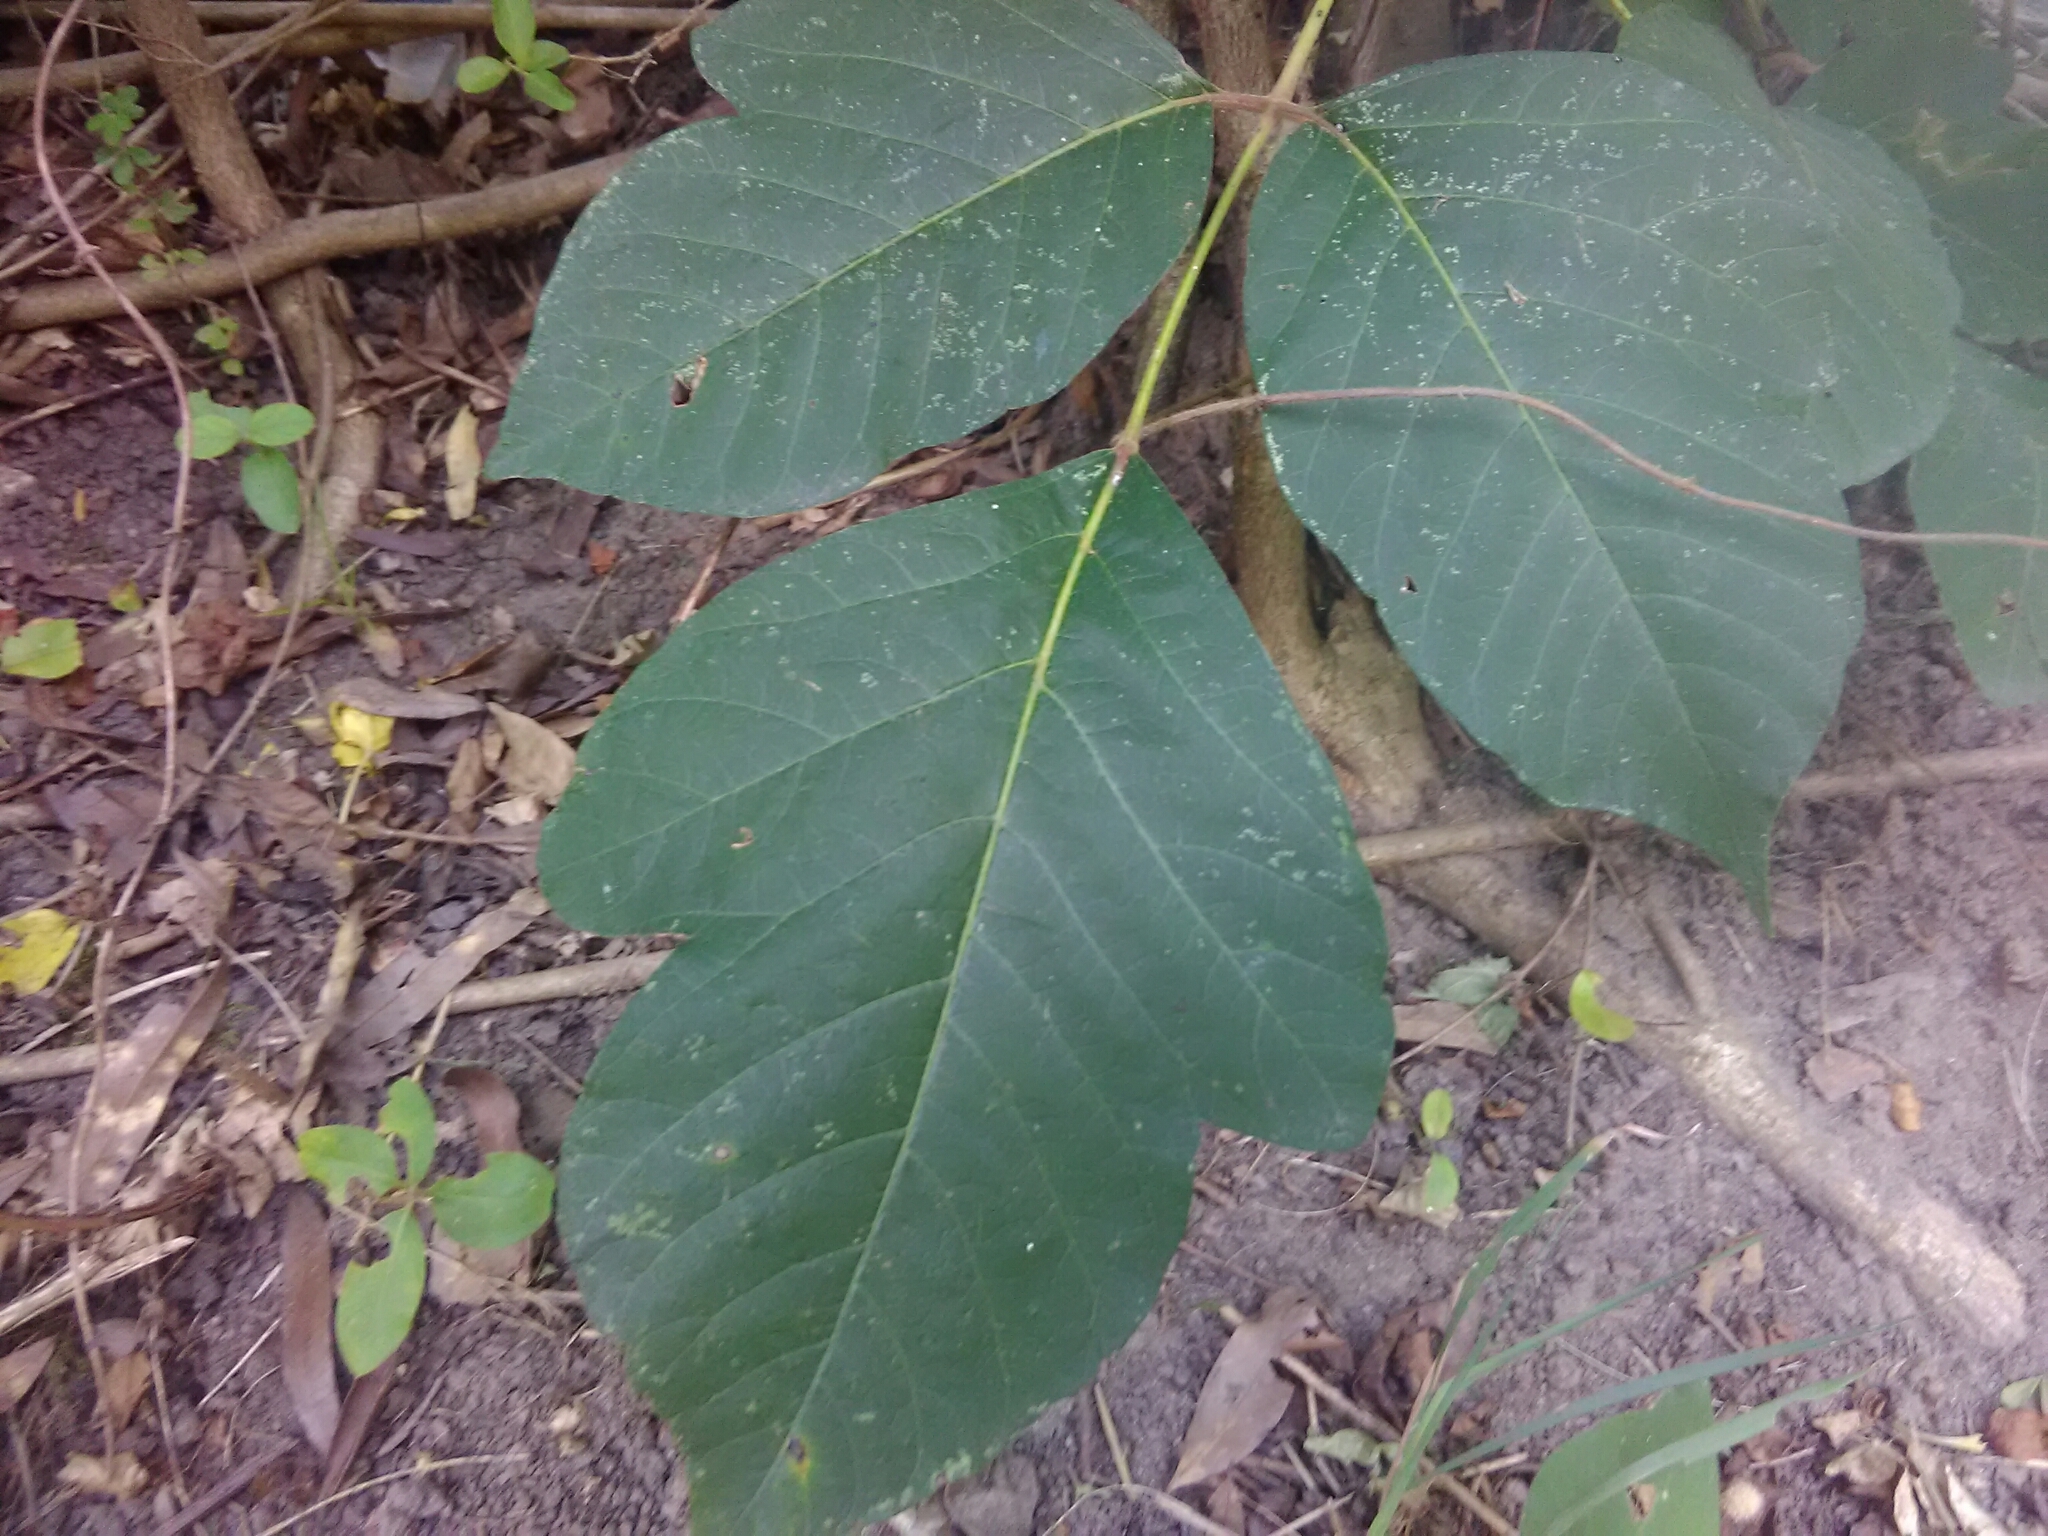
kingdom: Plantae
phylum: Tracheophyta
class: Magnoliopsida
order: Sapindales
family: Anacardiaceae
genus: Toxicodendron
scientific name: Toxicodendron radicans
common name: Poison ivy
